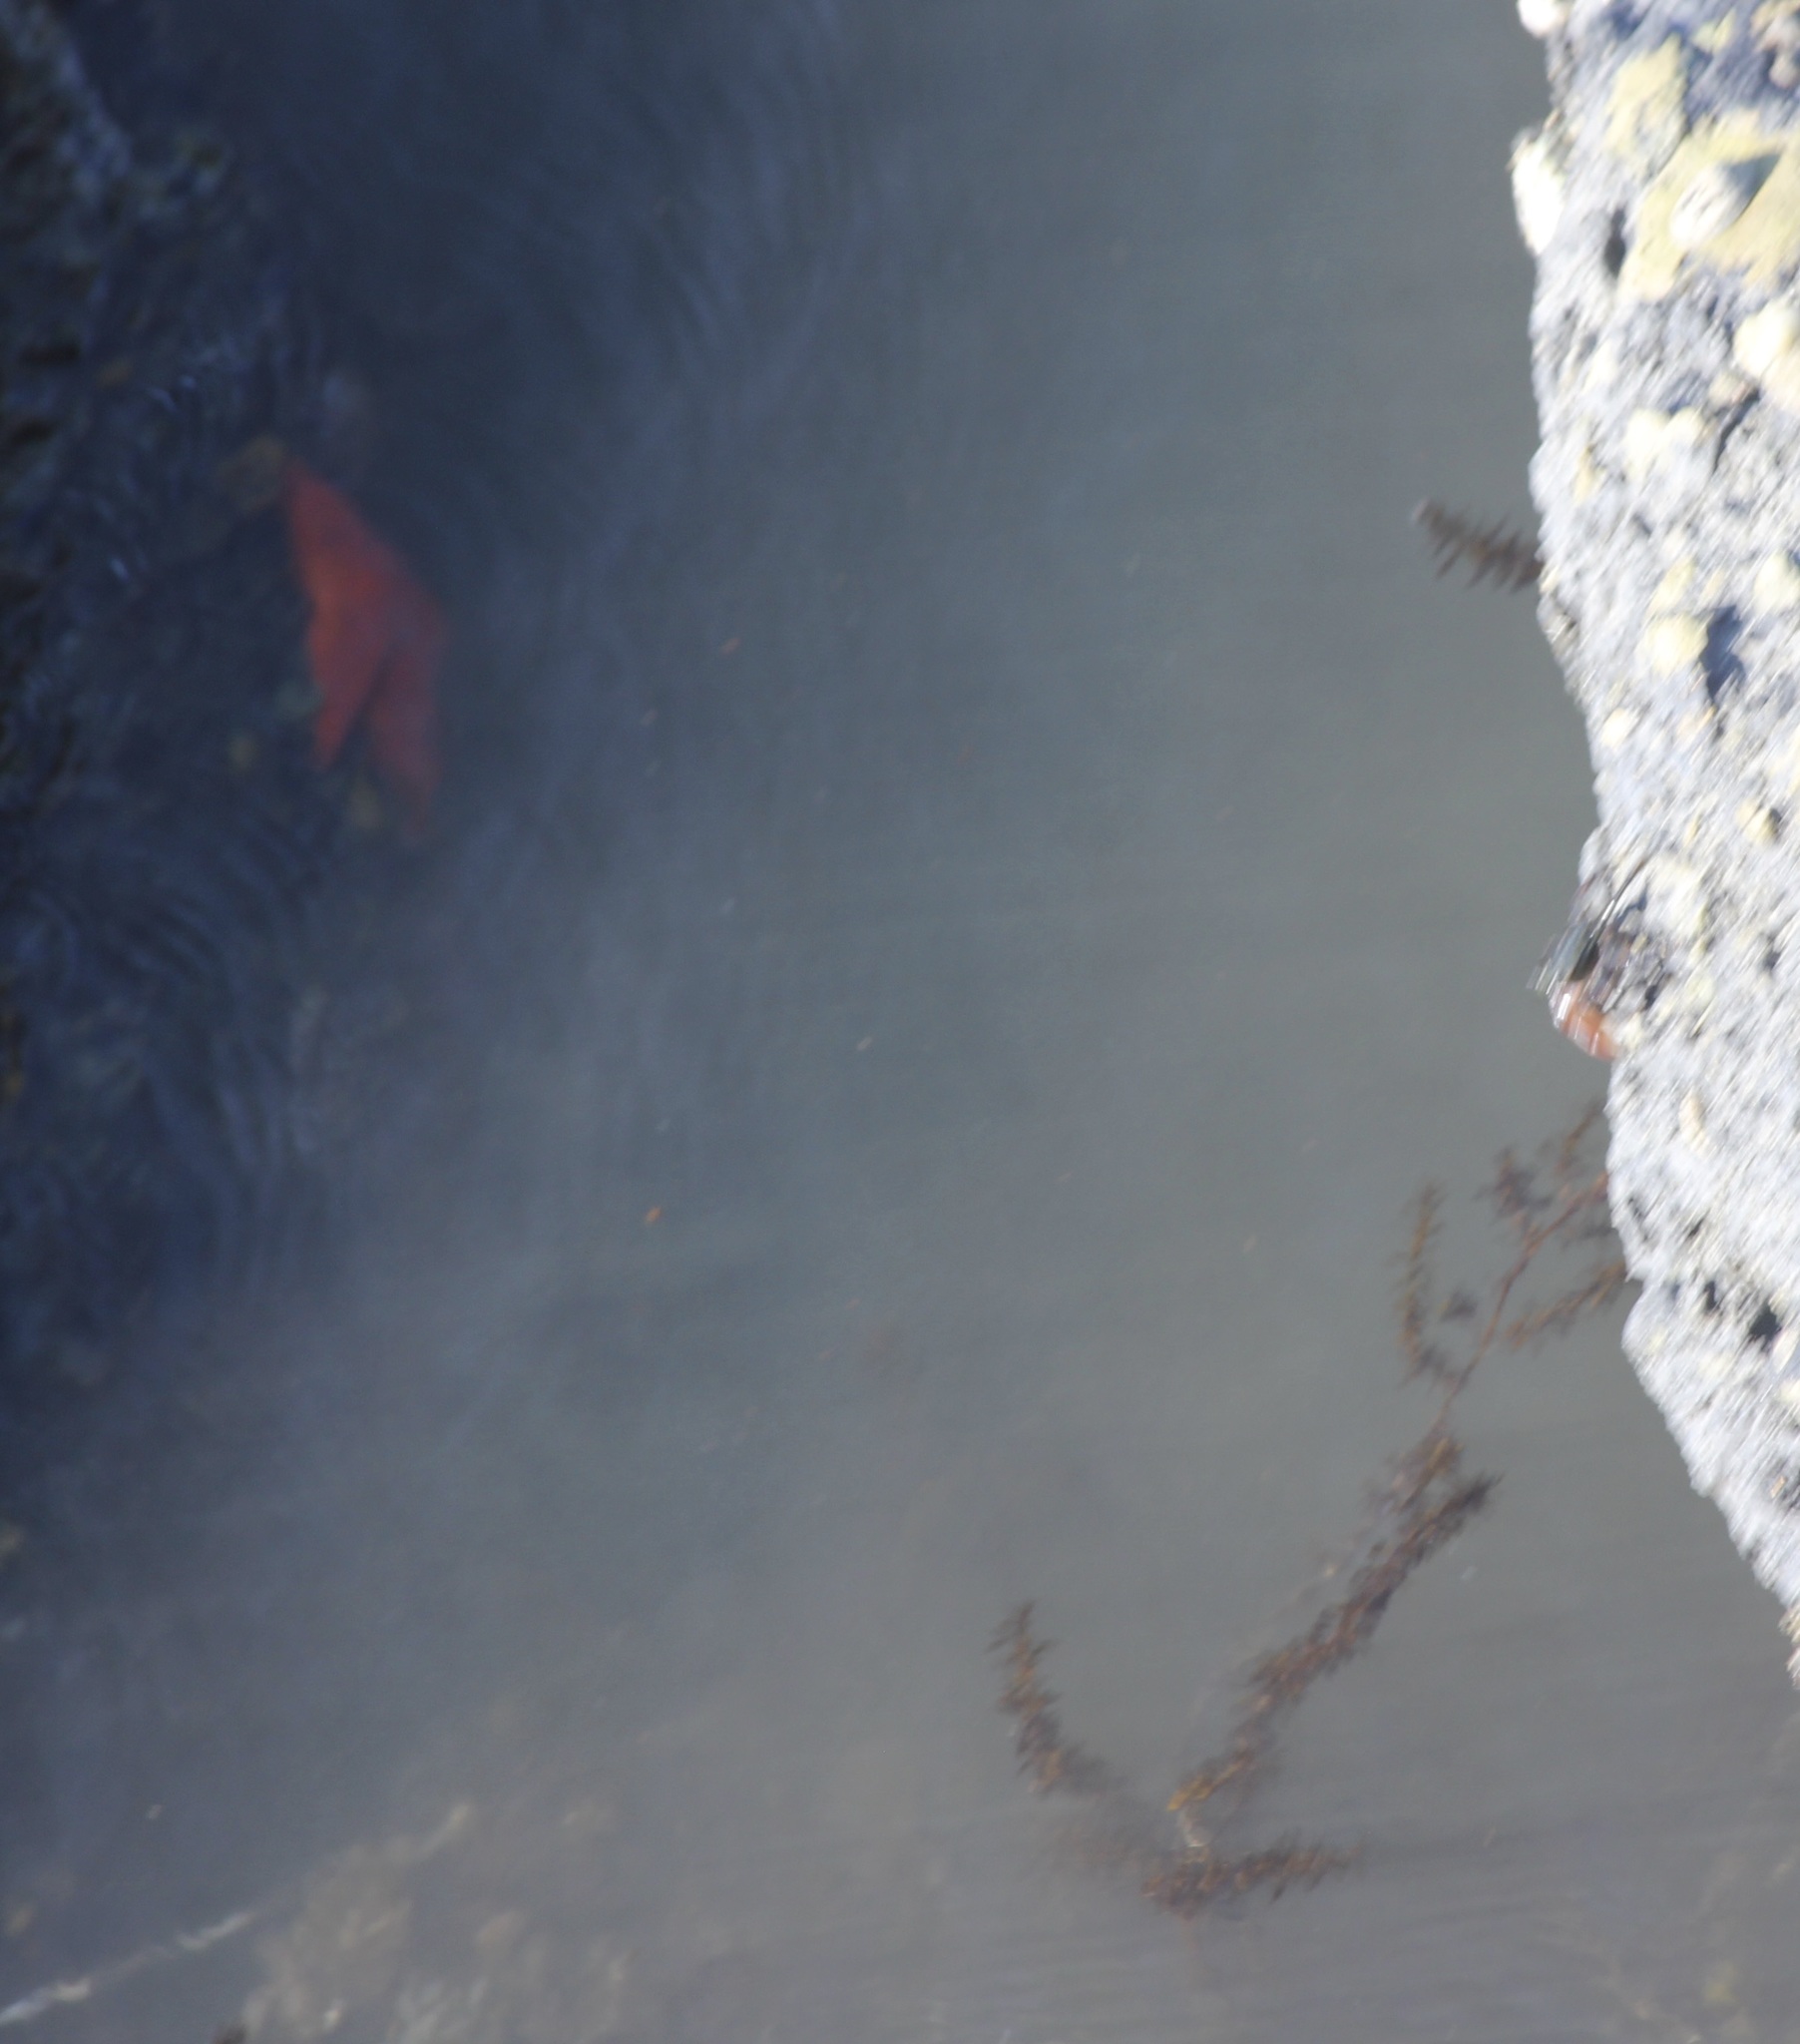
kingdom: Animalia
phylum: Arthropoda
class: Malacostraca
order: Decapoda
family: Grapsidae
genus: Pachygrapsus
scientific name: Pachygrapsus crassipes
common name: Striped shore crab
